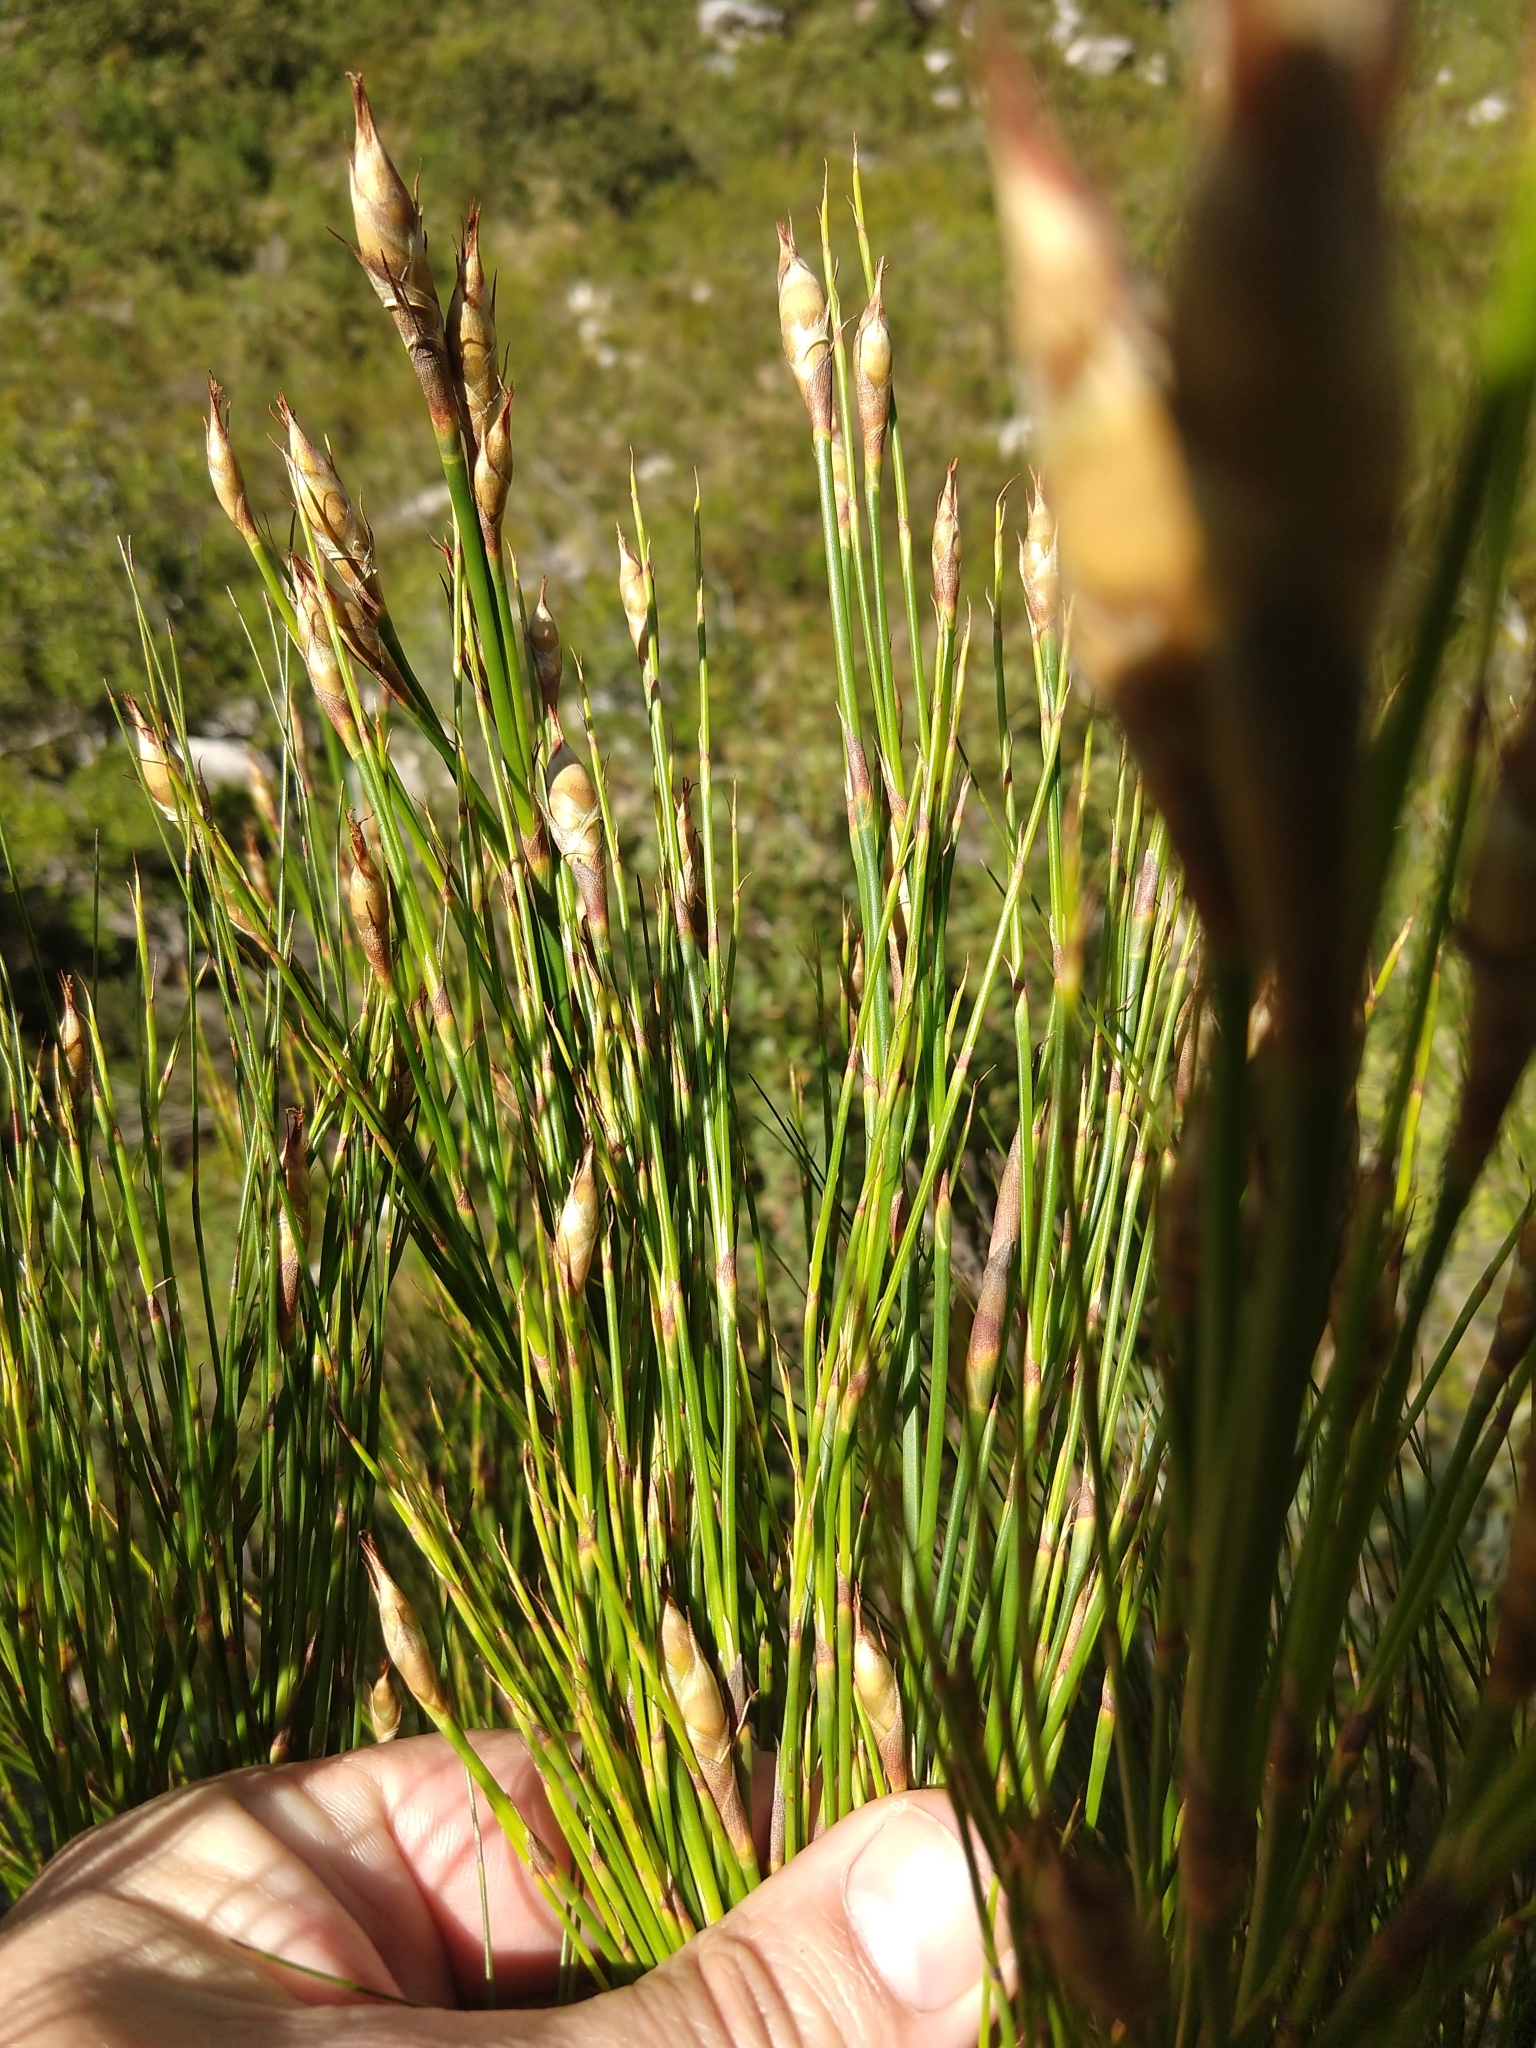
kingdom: Plantae
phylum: Tracheophyta
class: Liliopsida
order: Poales
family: Restionaceae
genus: Cannomois
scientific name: Cannomois virgata
